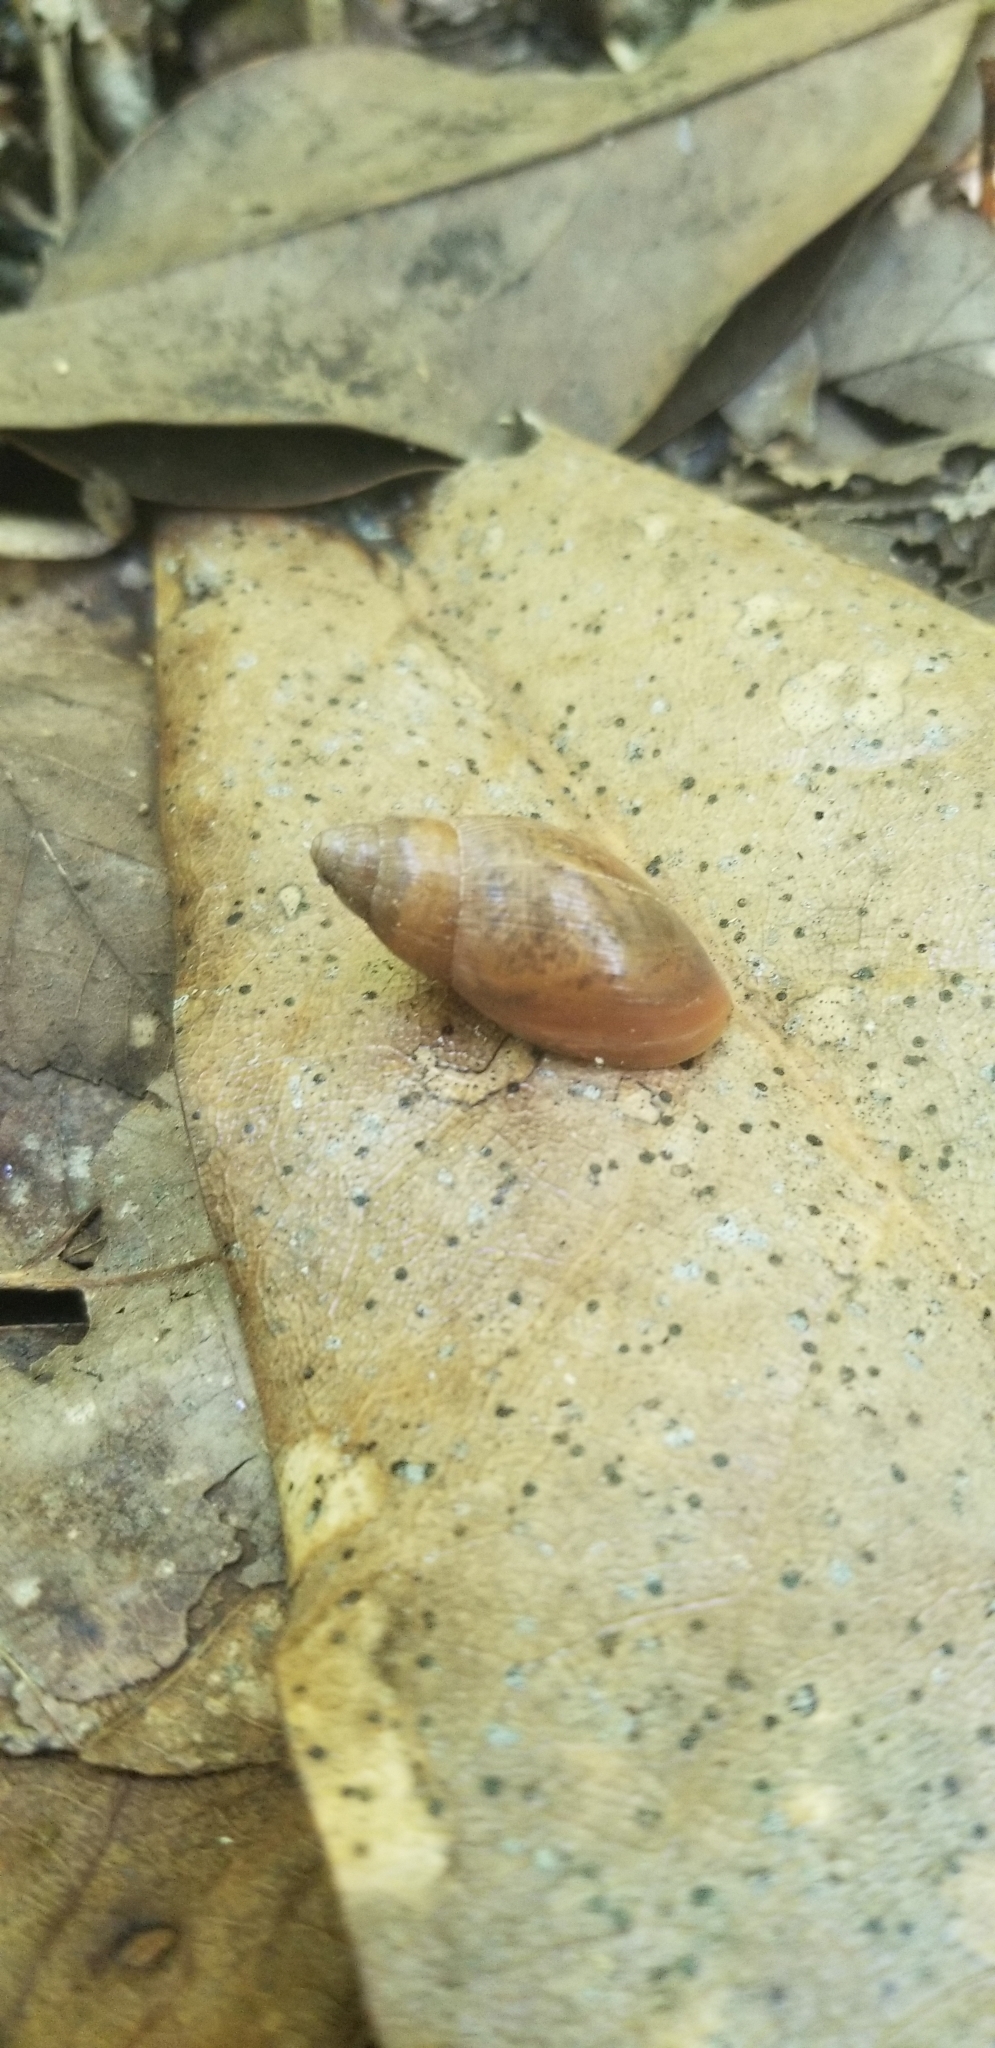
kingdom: Animalia
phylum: Mollusca
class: Gastropoda
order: Stylommatophora
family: Spiraxidae
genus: Euglandina
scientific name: Euglandina rosea
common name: Rosy wolfsnail
